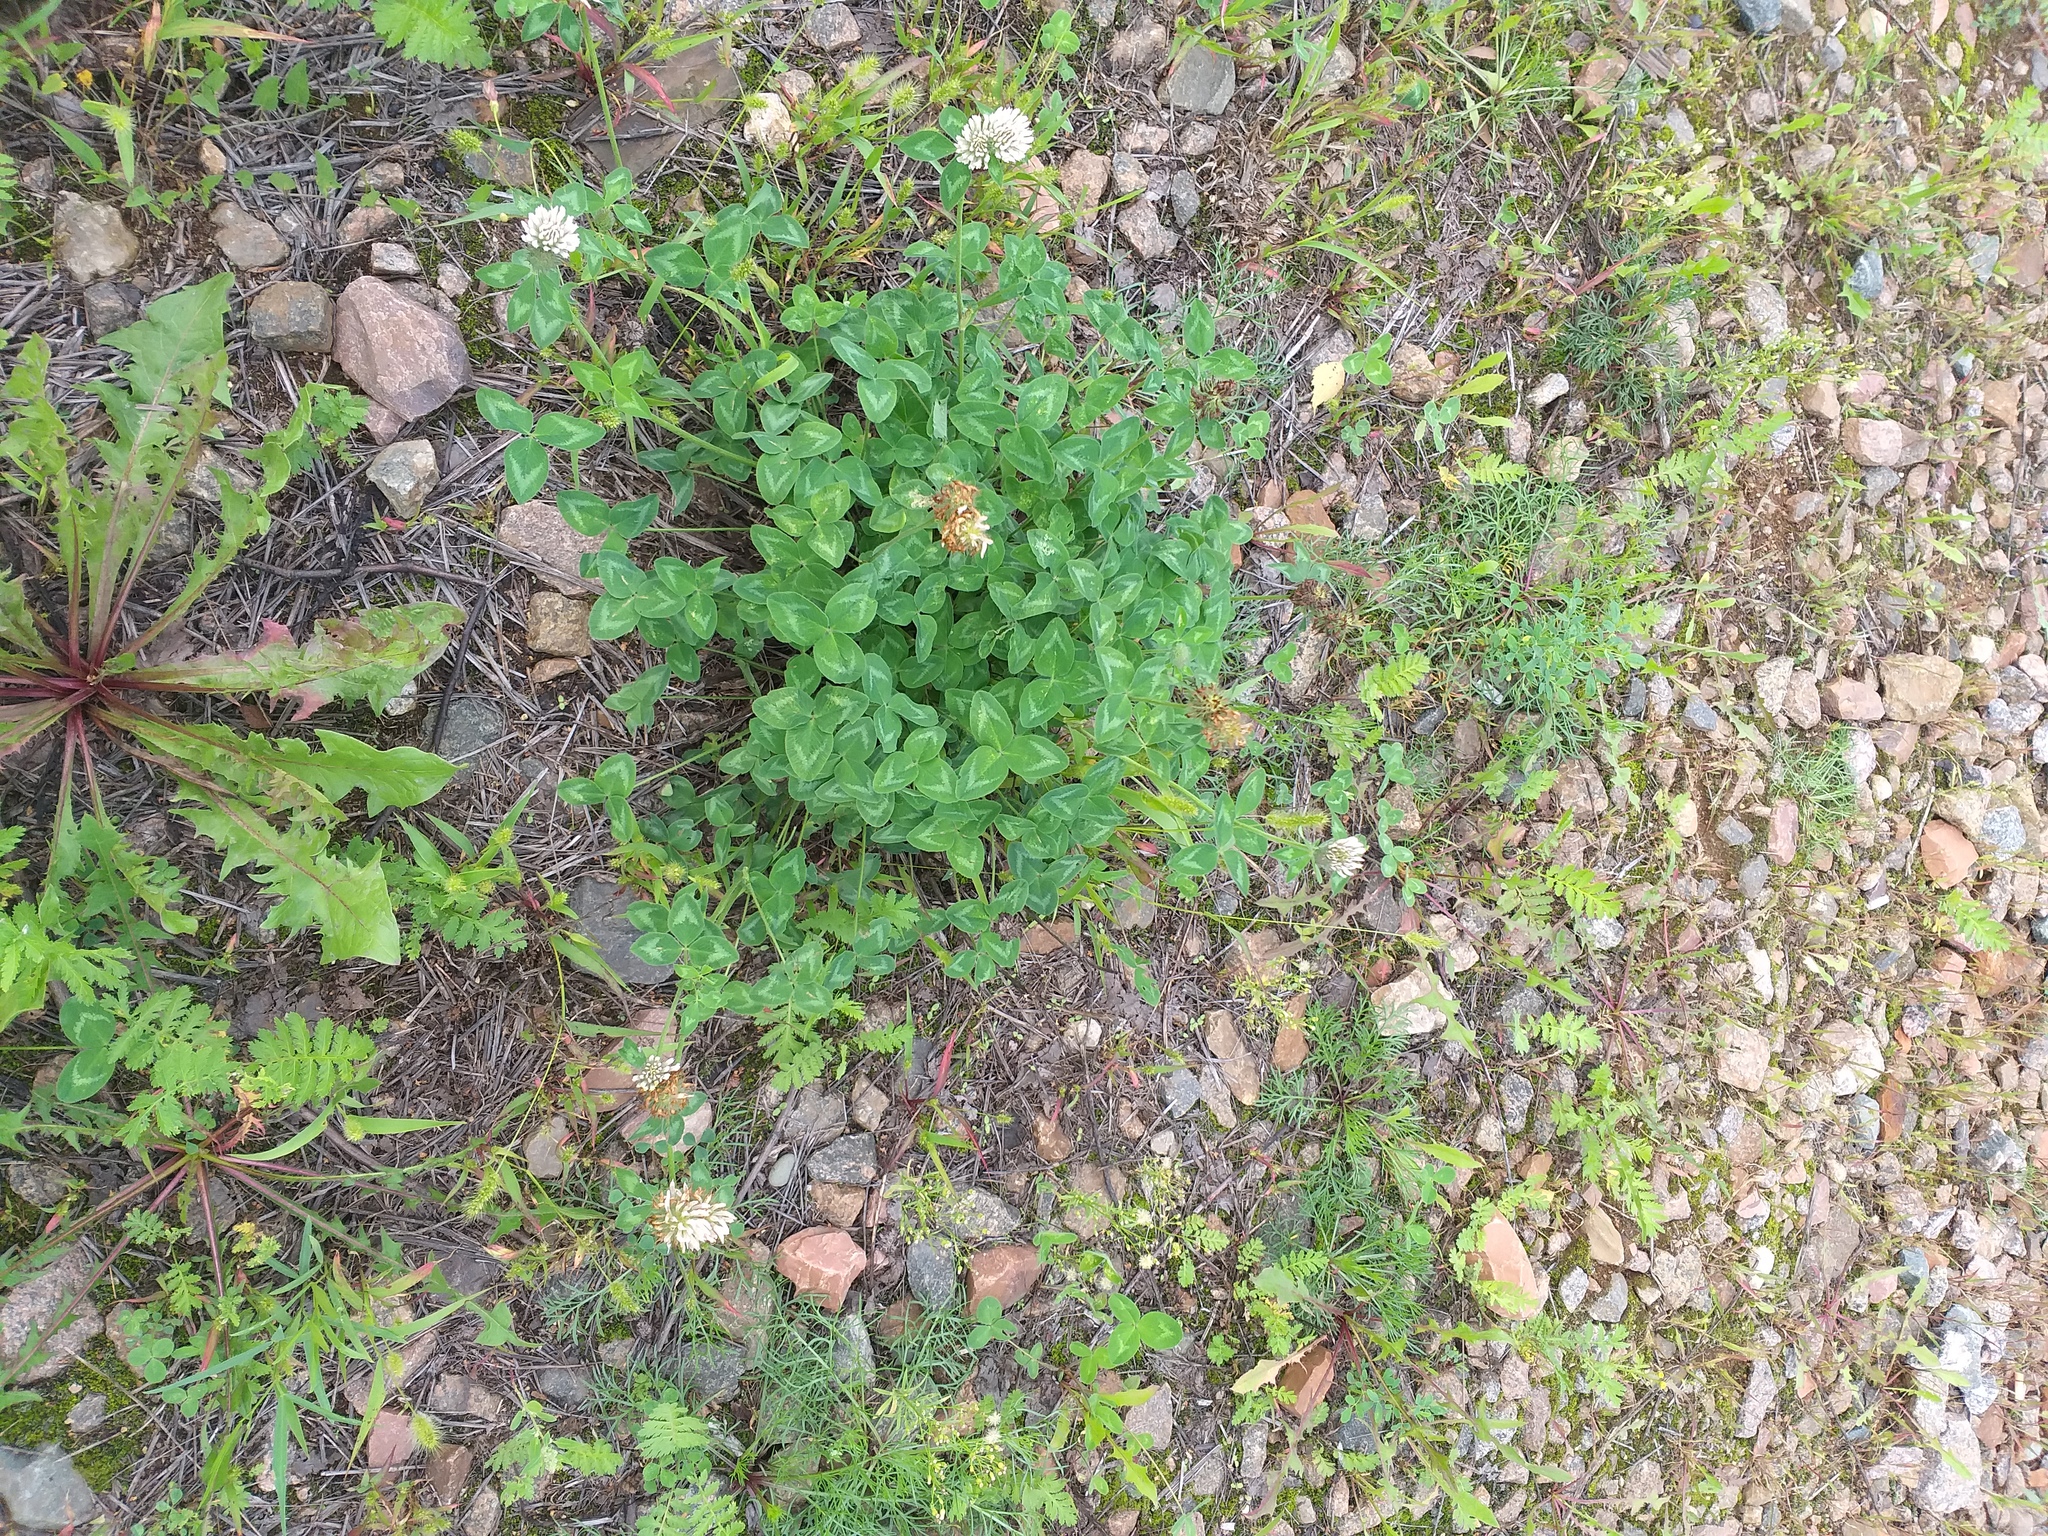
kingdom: Plantae
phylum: Tracheophyta
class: Magnoliopsida
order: Fabales
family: Fabaceae
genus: Trifolium
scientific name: Trifolium pratense
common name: Red clover
